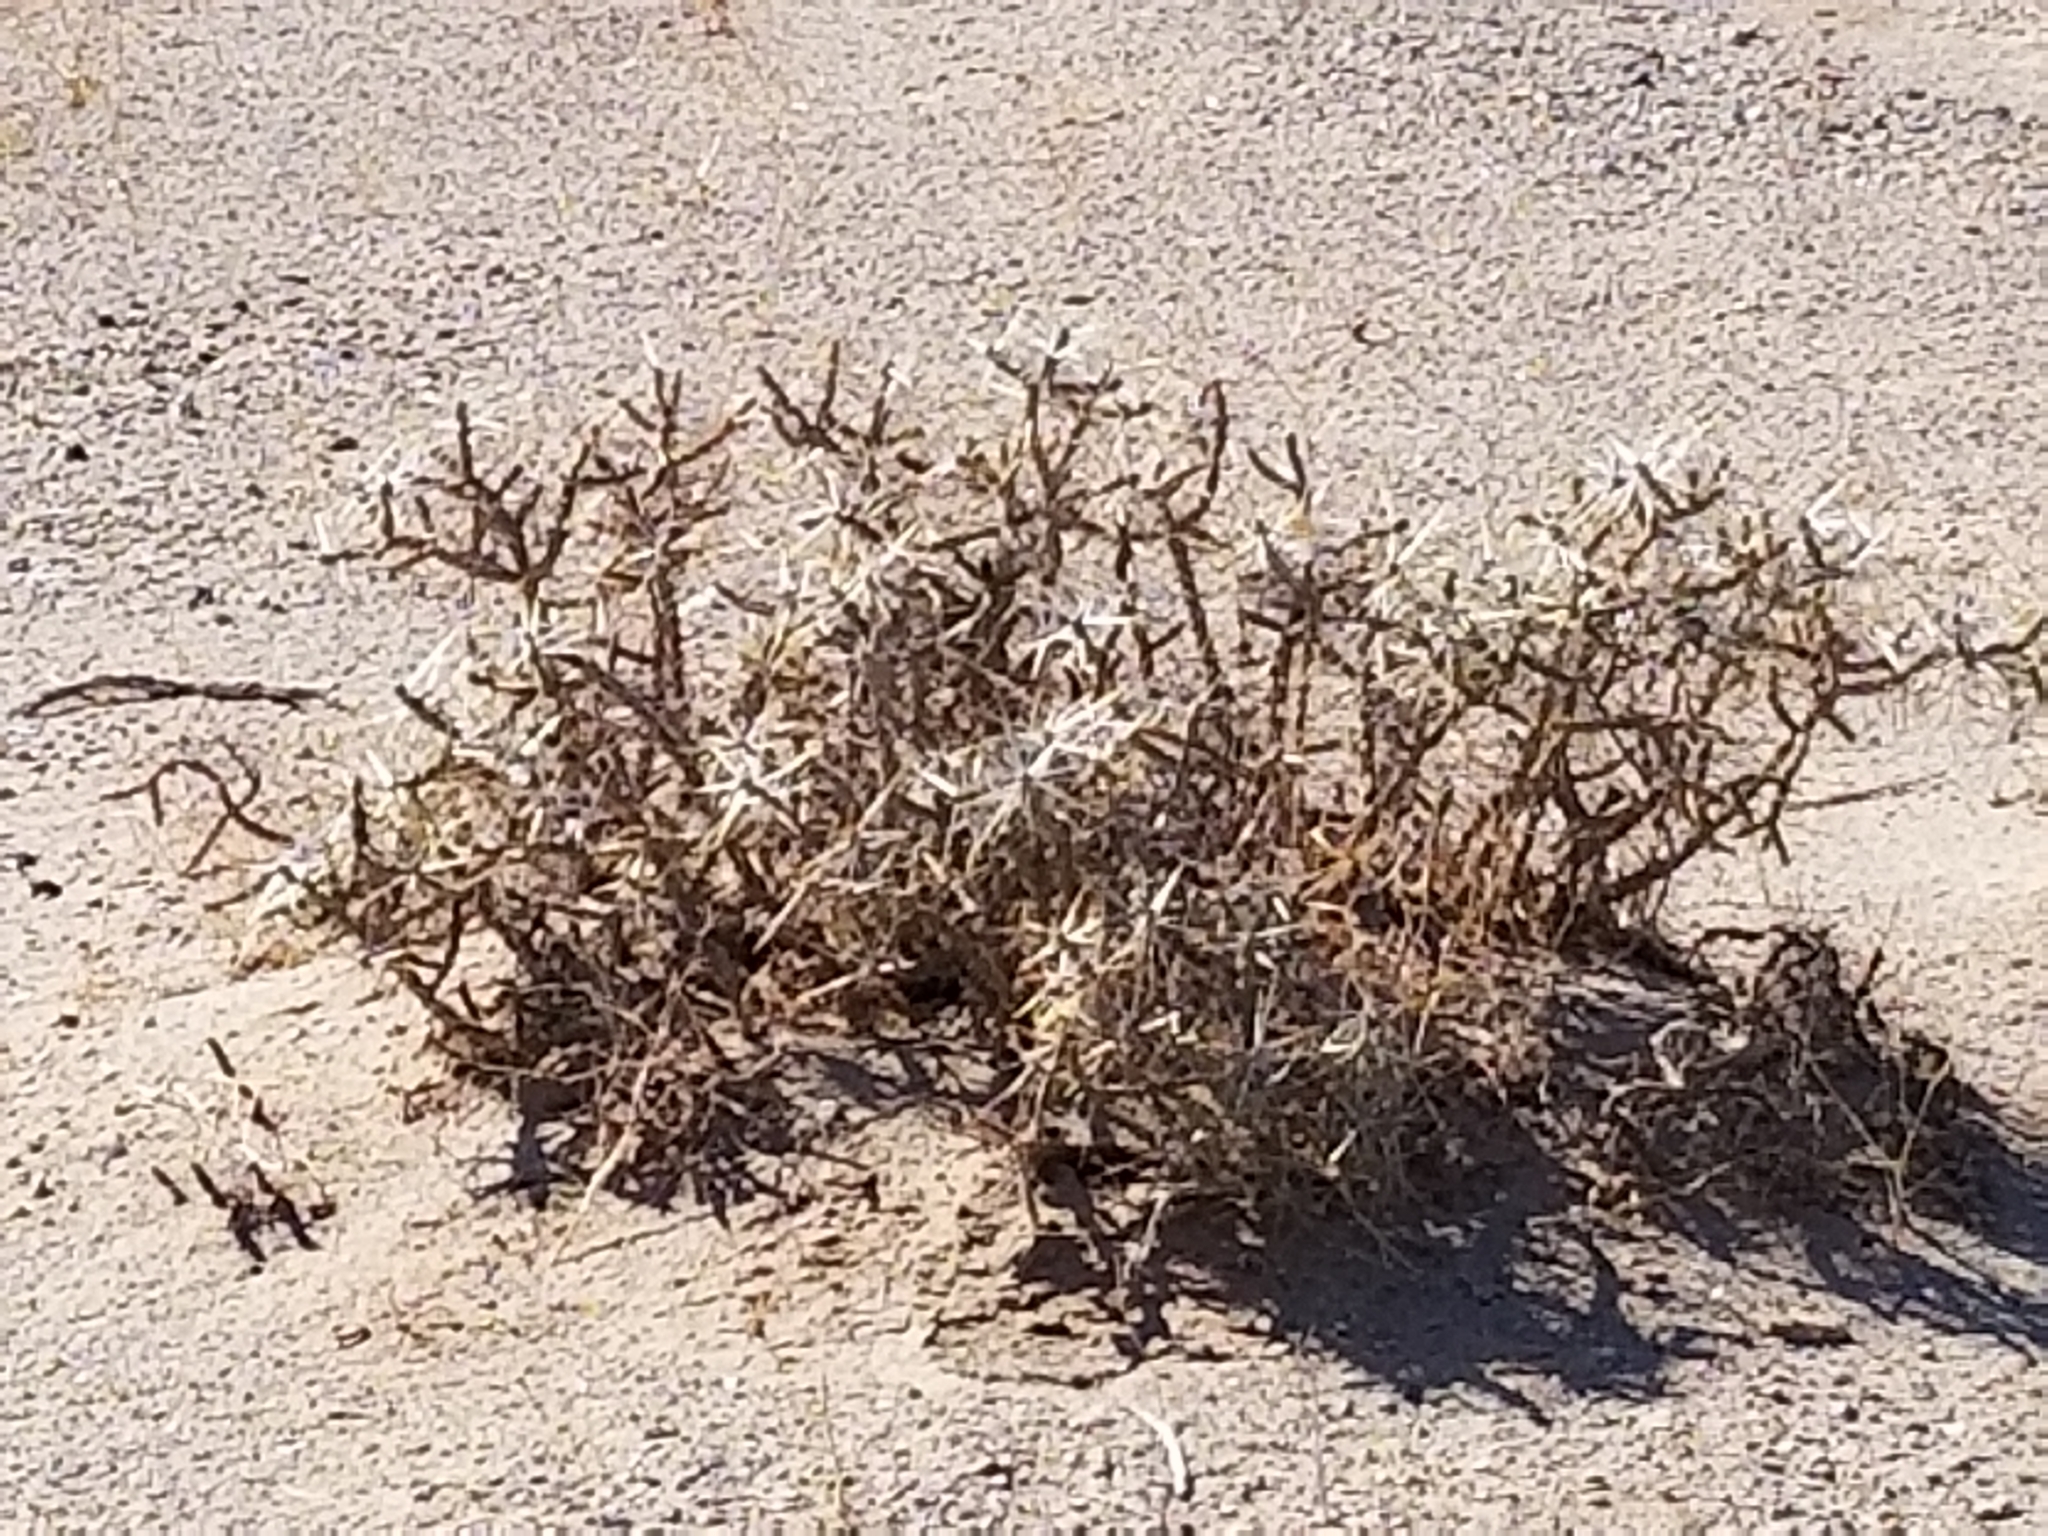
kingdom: Plantae
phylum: Tracheophyta
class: Magnoliopsida
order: Caryophyllales
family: Cactaceae
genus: Cylindropuntia
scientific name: Cylindropuntia ramosissima
